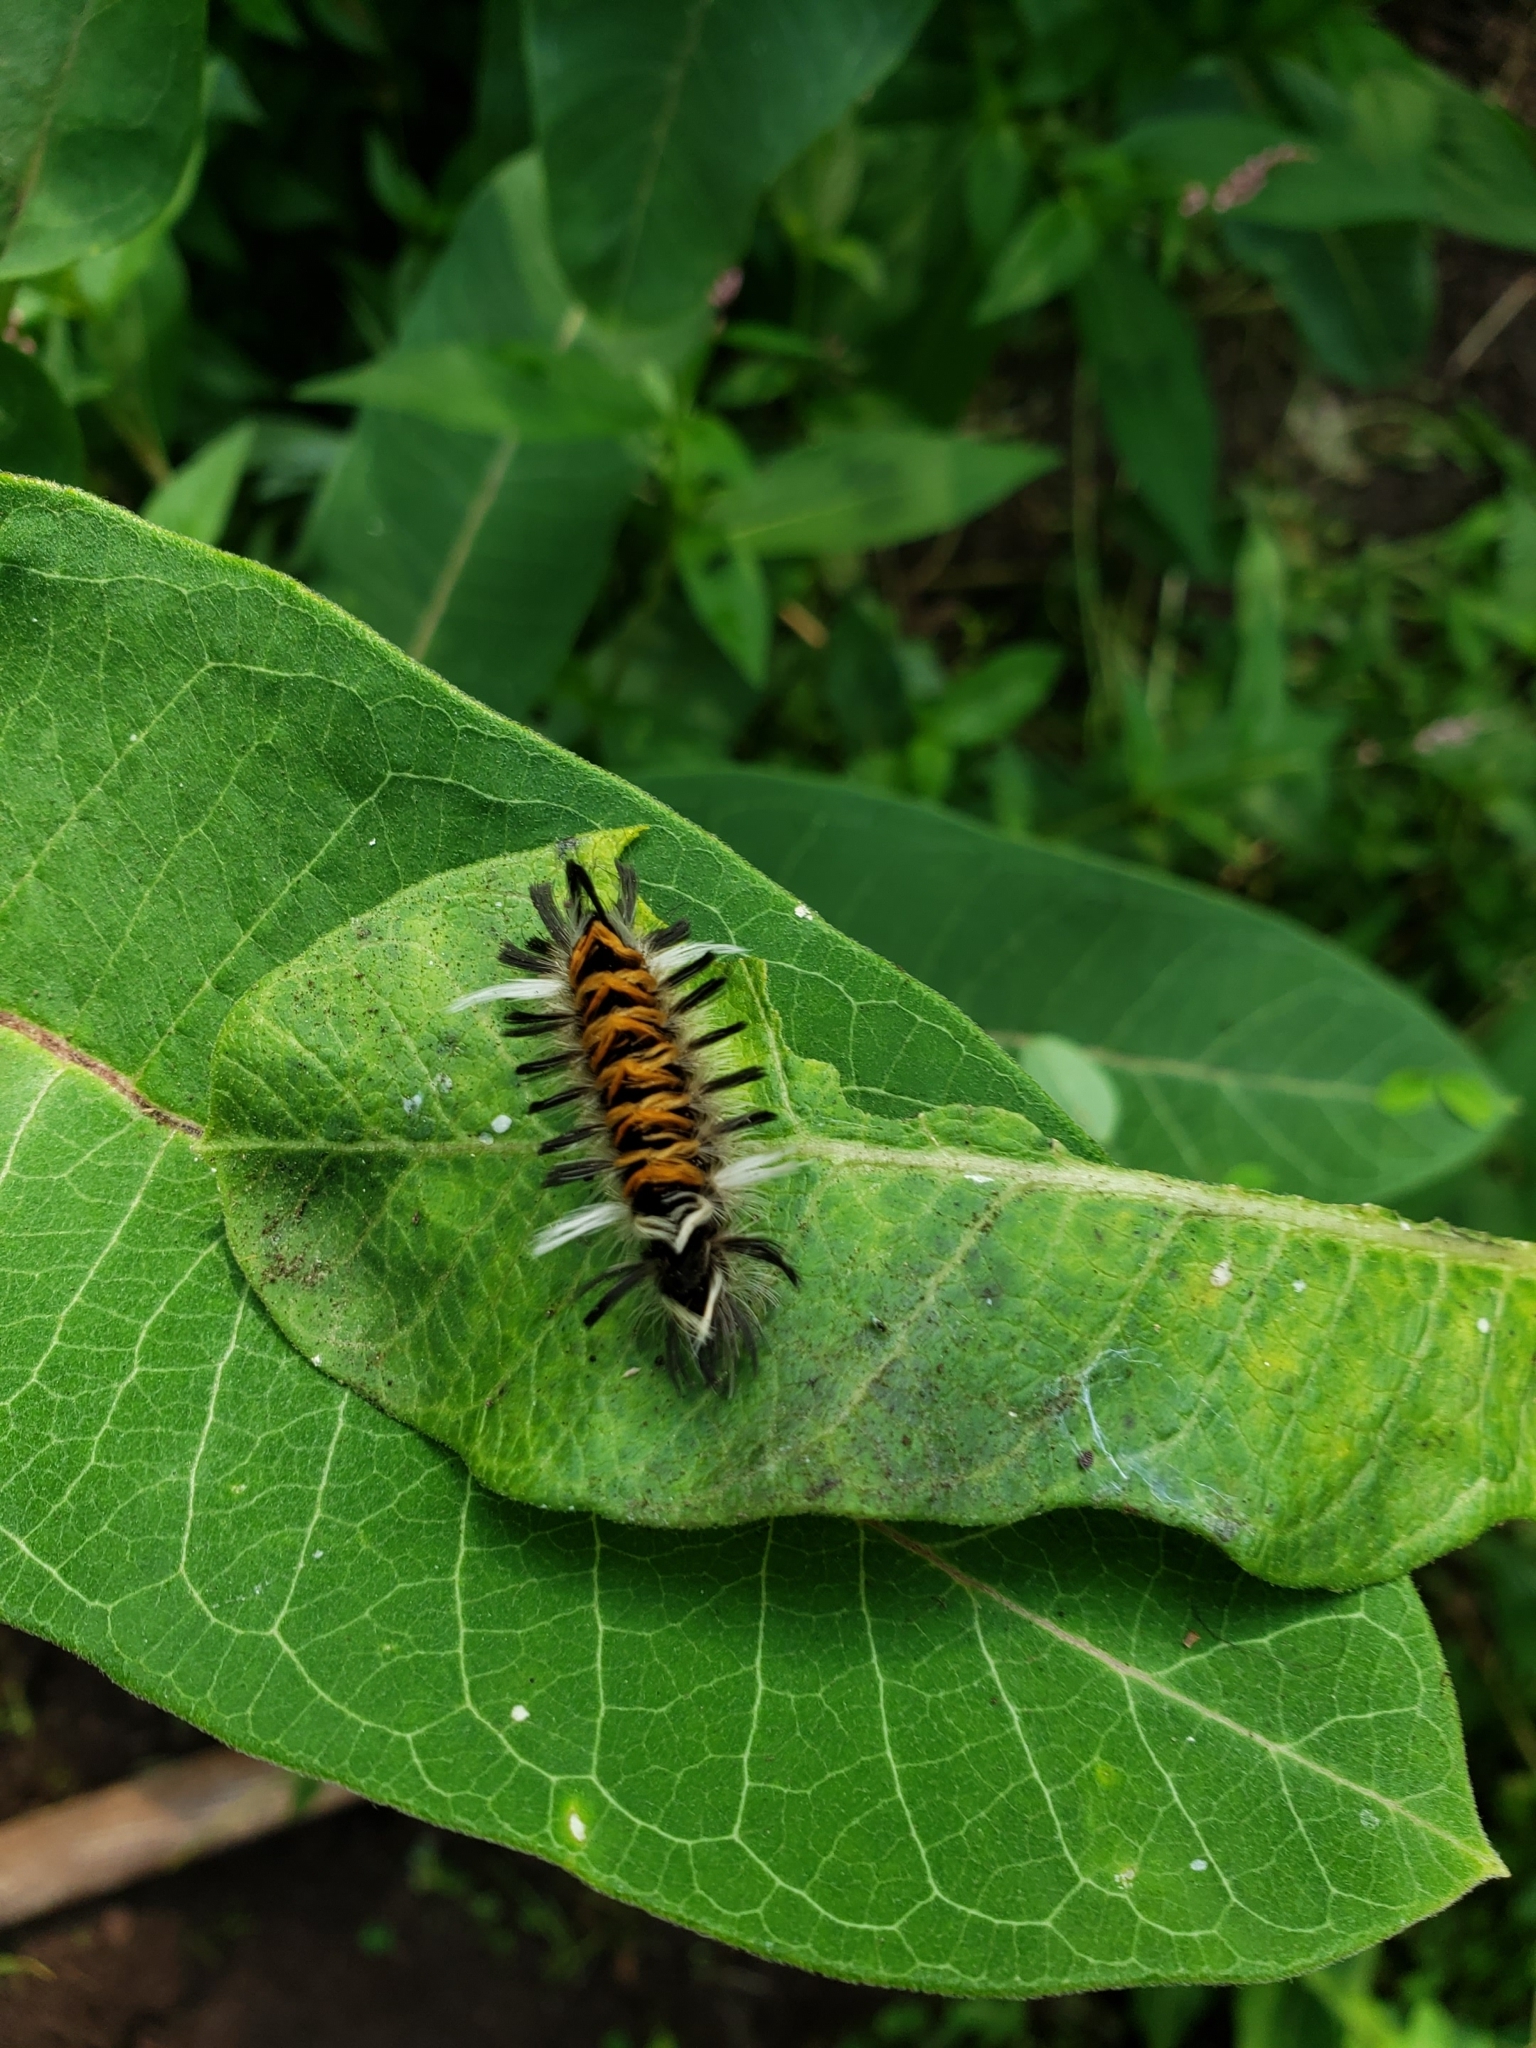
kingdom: Animalia
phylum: Arthropoda
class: Insecta
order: Lepidoptera
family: Erebidae
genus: Euchaetes
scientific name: Euchaetes egle
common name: Milkweed tussock moth
